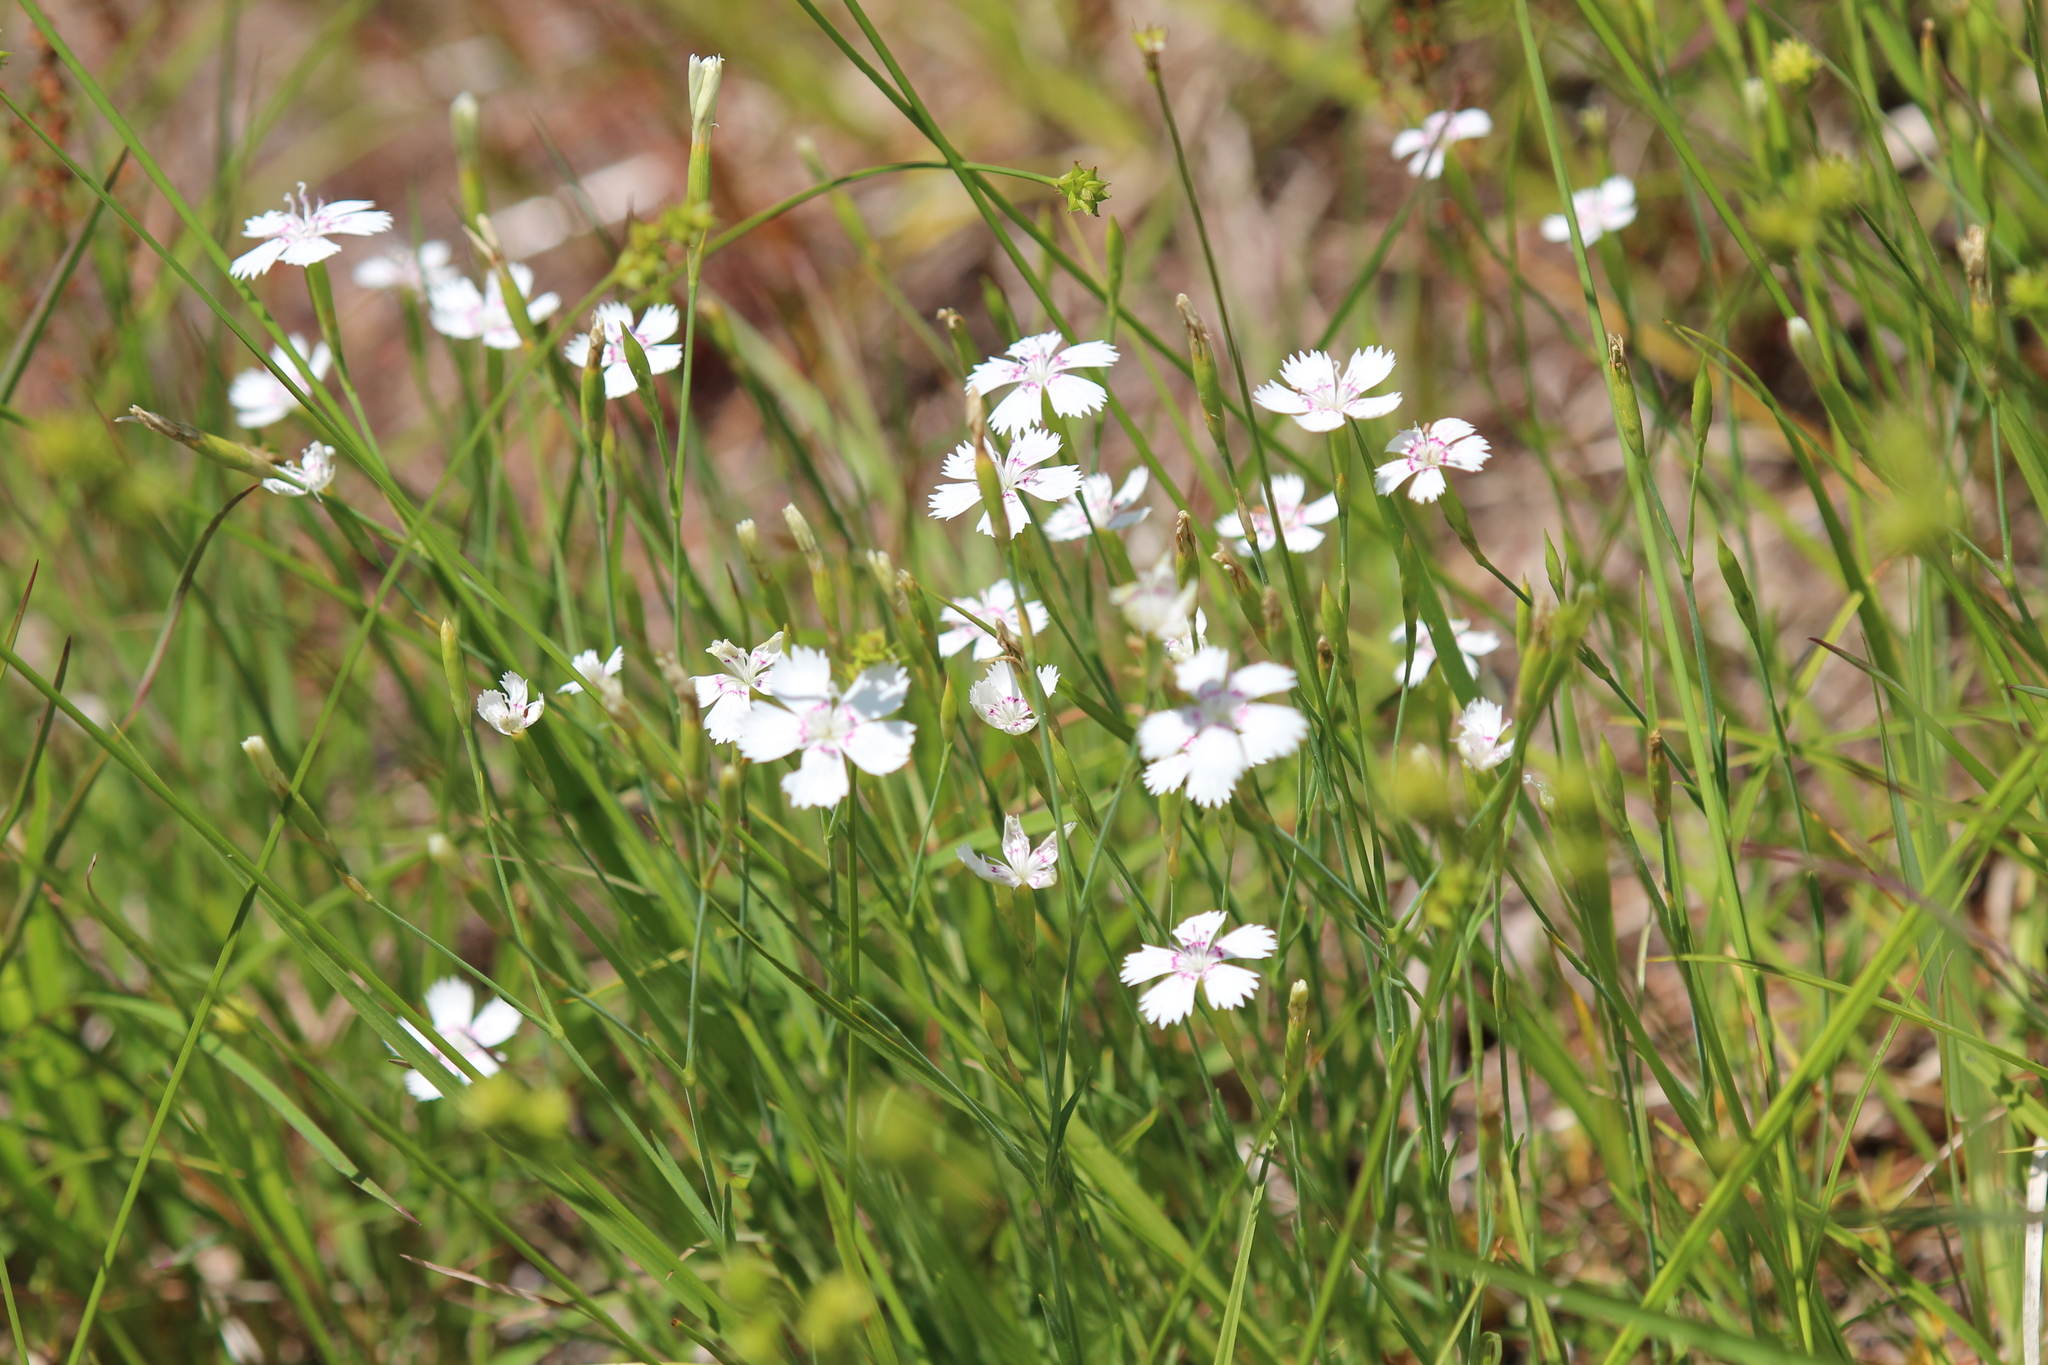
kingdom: Plantae
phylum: Tracheophyta
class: Magnoliopsida
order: Caryophyllales
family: Caryophyllaceae
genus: Dianthus
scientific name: Dianthus deltoides
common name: Maiden pink
